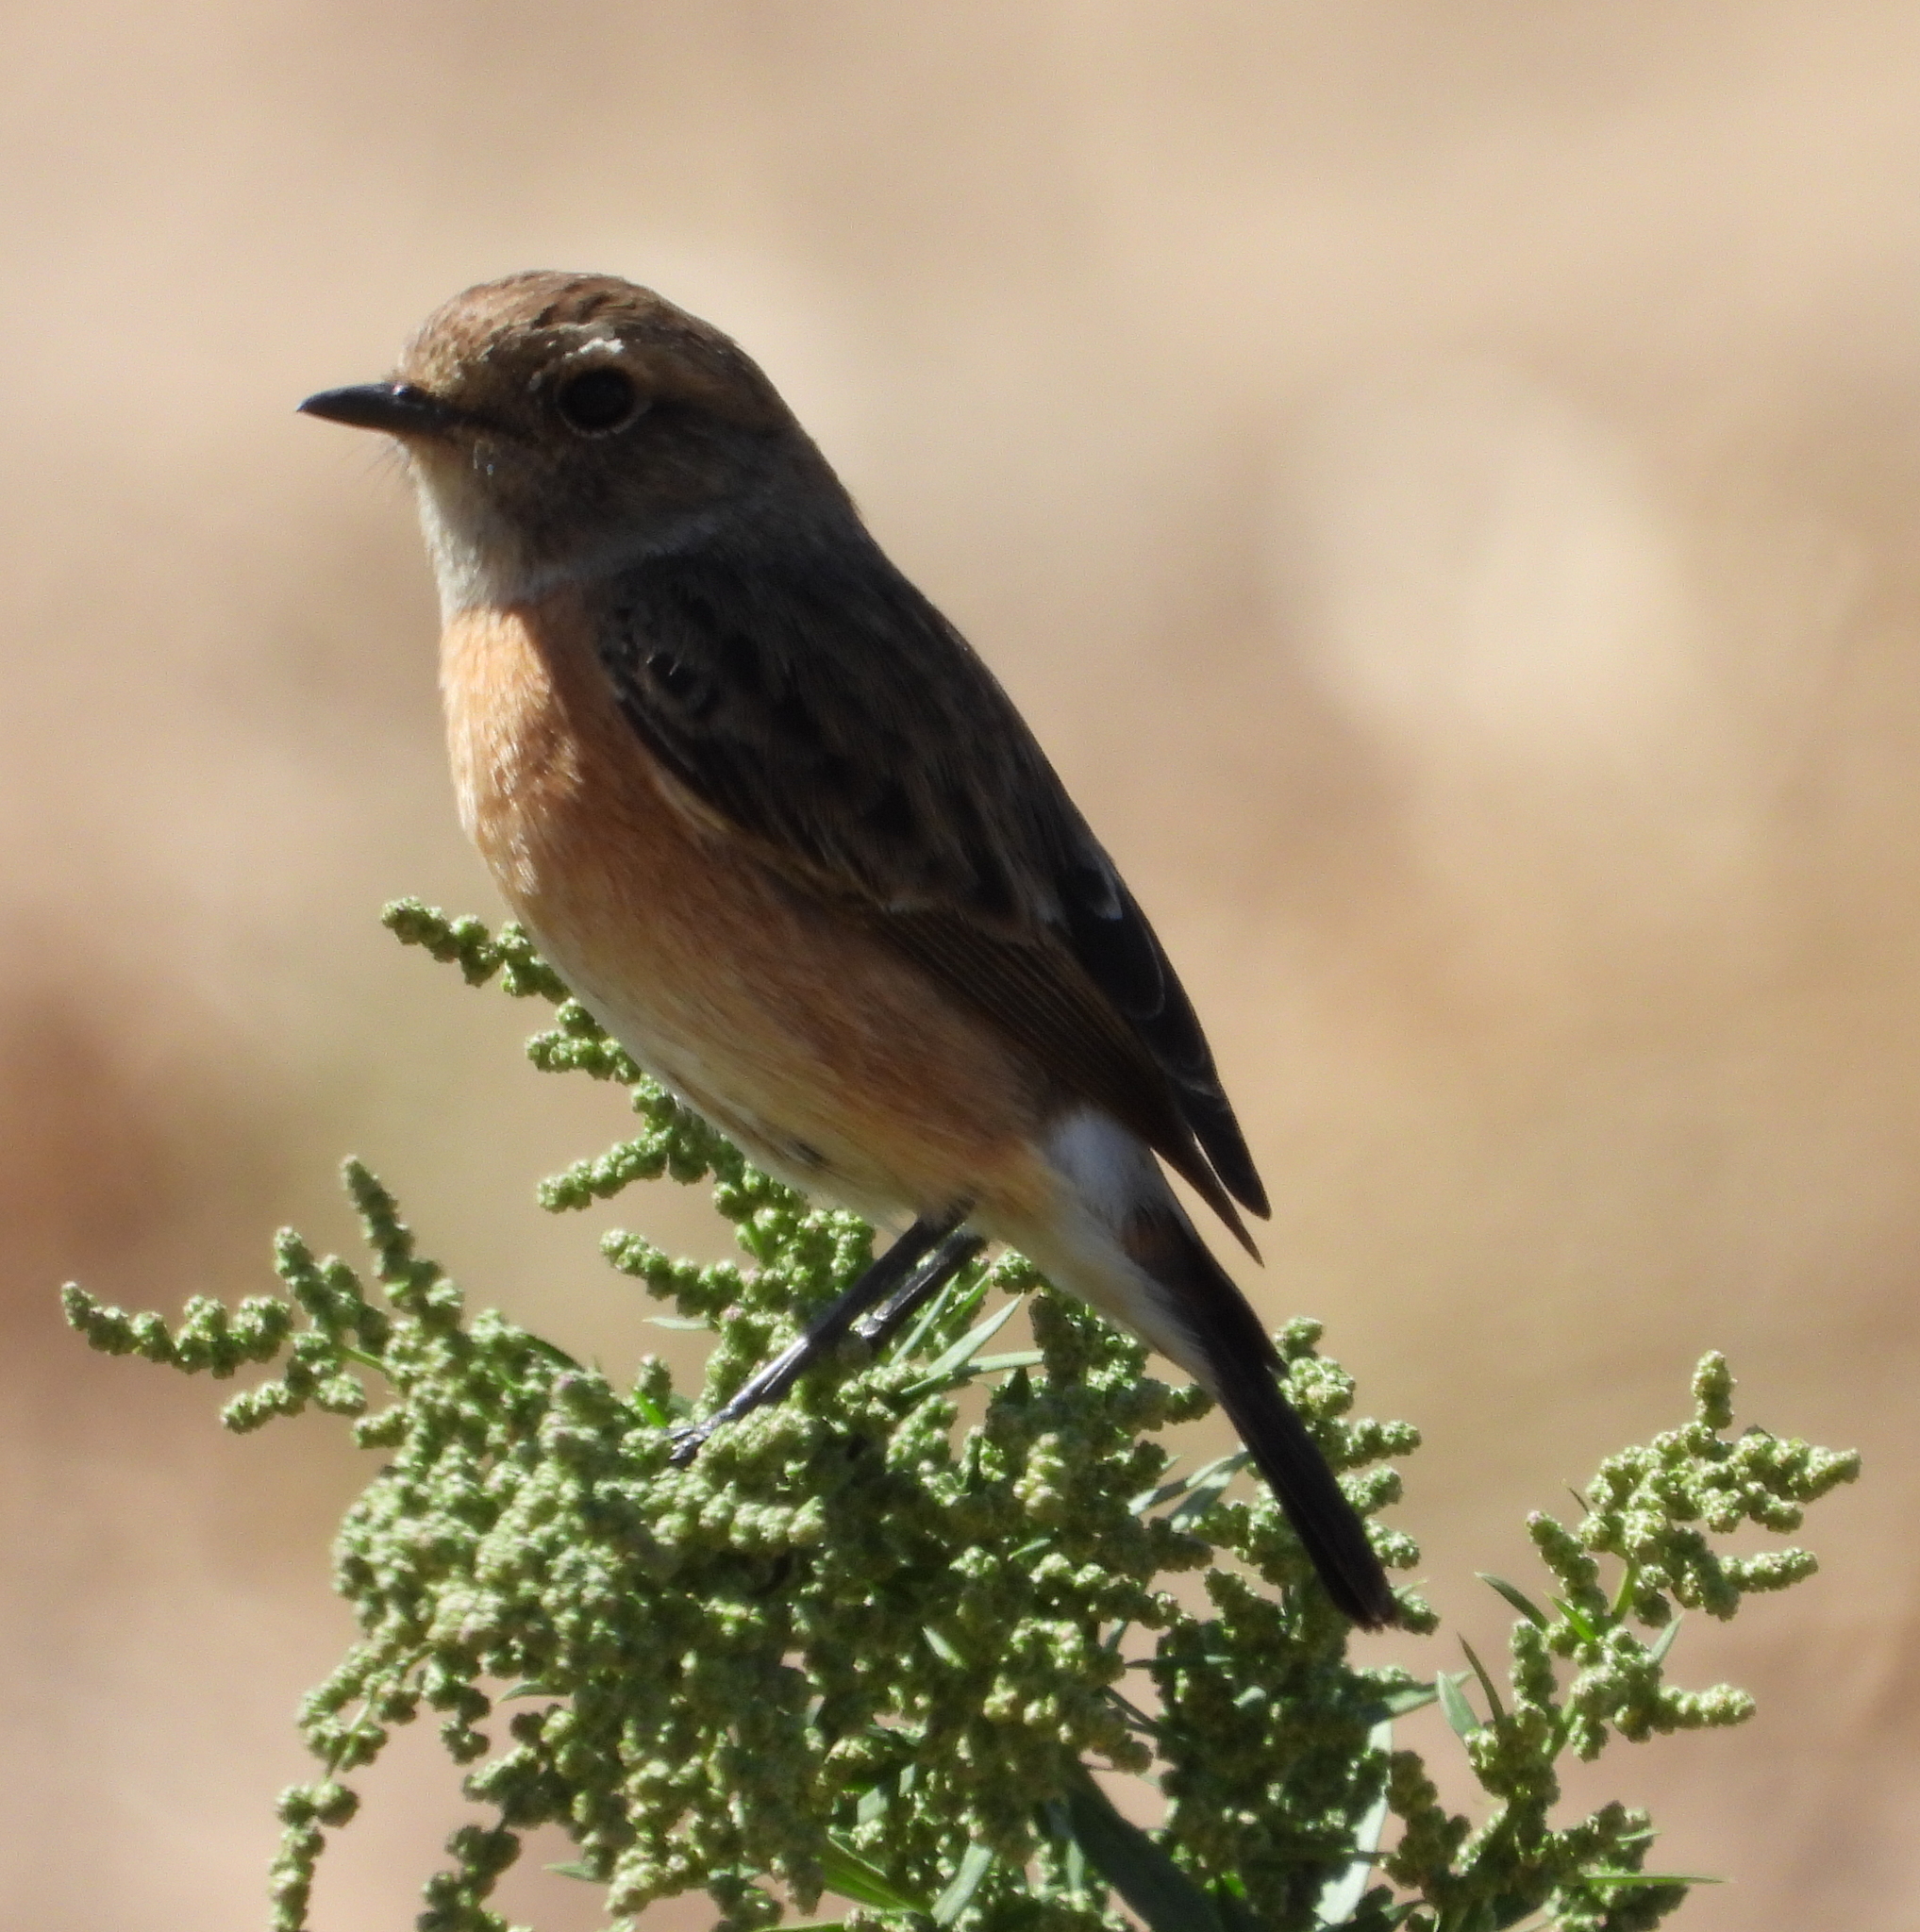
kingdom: Animalia
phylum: Chordata
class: Aves
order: Passeriformes
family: Muscicapidae
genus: Saxicola
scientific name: Saxicola torquatus
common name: African stonechat
